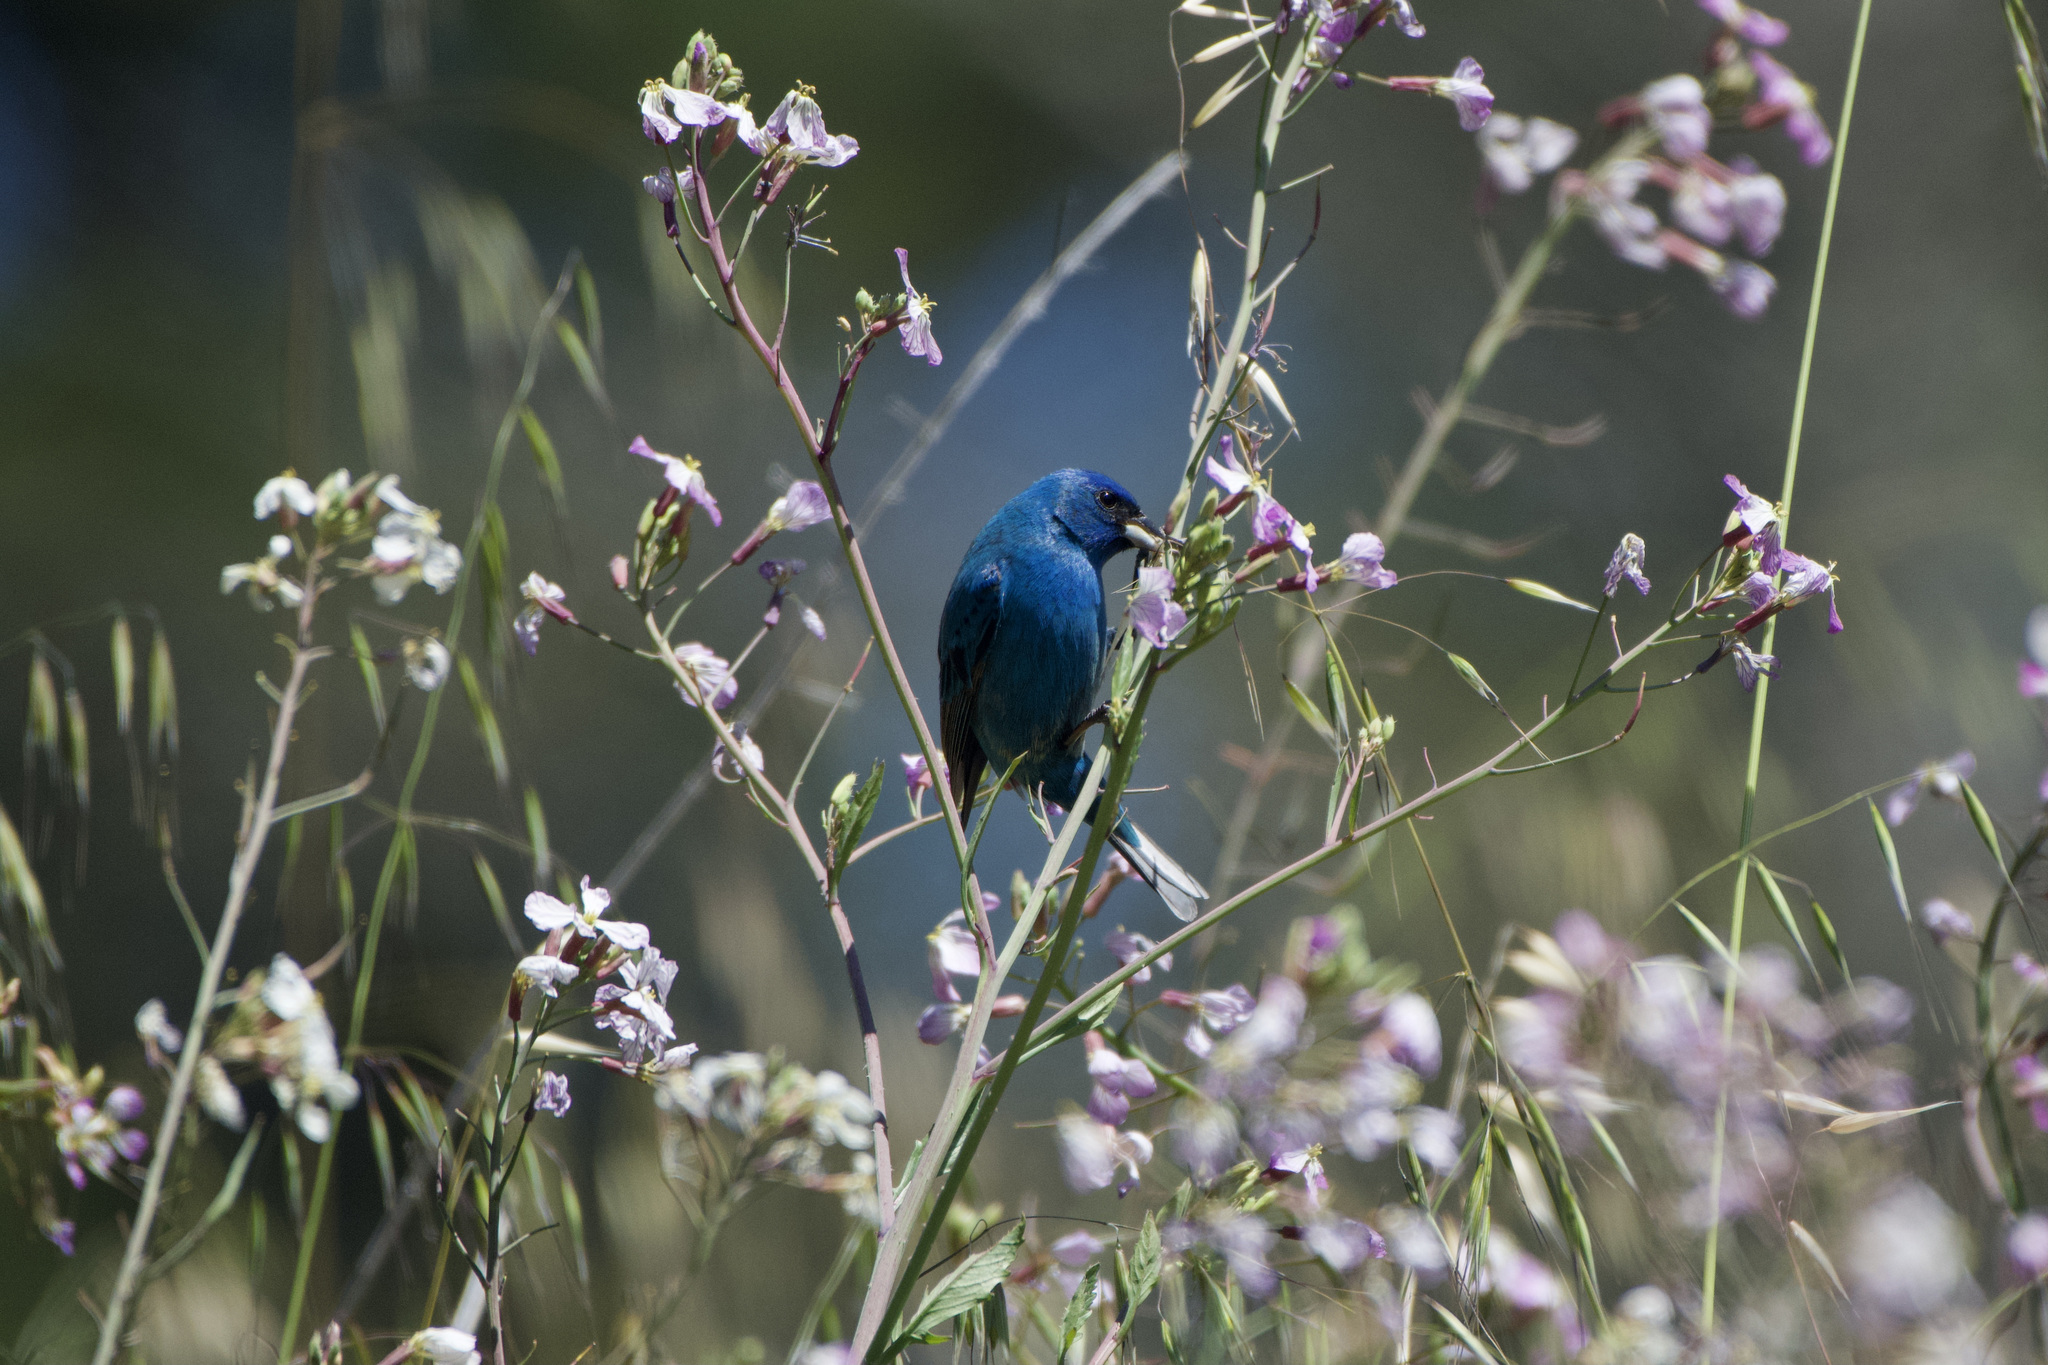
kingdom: Animalia
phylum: Chordata
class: Aves
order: Passeriformes
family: Cardinalidae
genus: Passerina
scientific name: Passerina cyanea
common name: Indigo bunting
